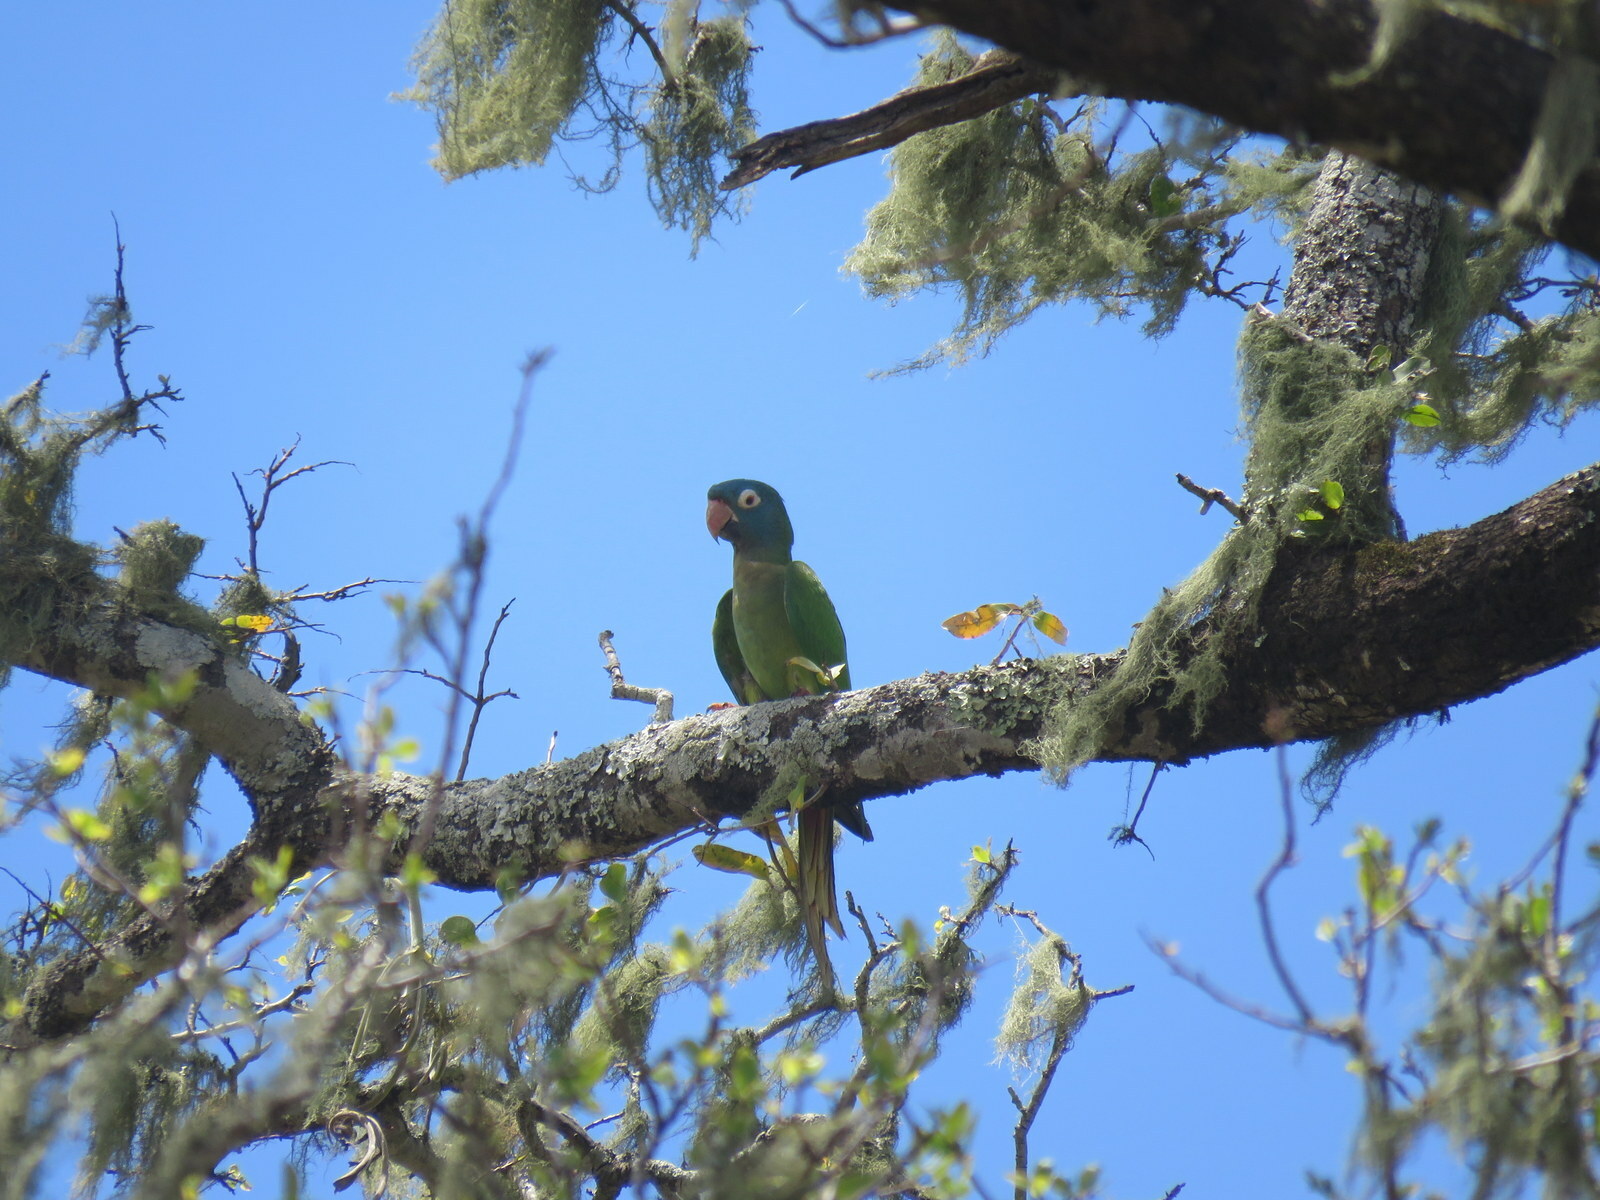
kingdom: Animalia
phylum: Chordata
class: Aves
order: Psittaciformes
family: Psittacidae
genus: Aratinga
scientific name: Aratinga acuticaudata
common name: Blue-crowned parakeet
